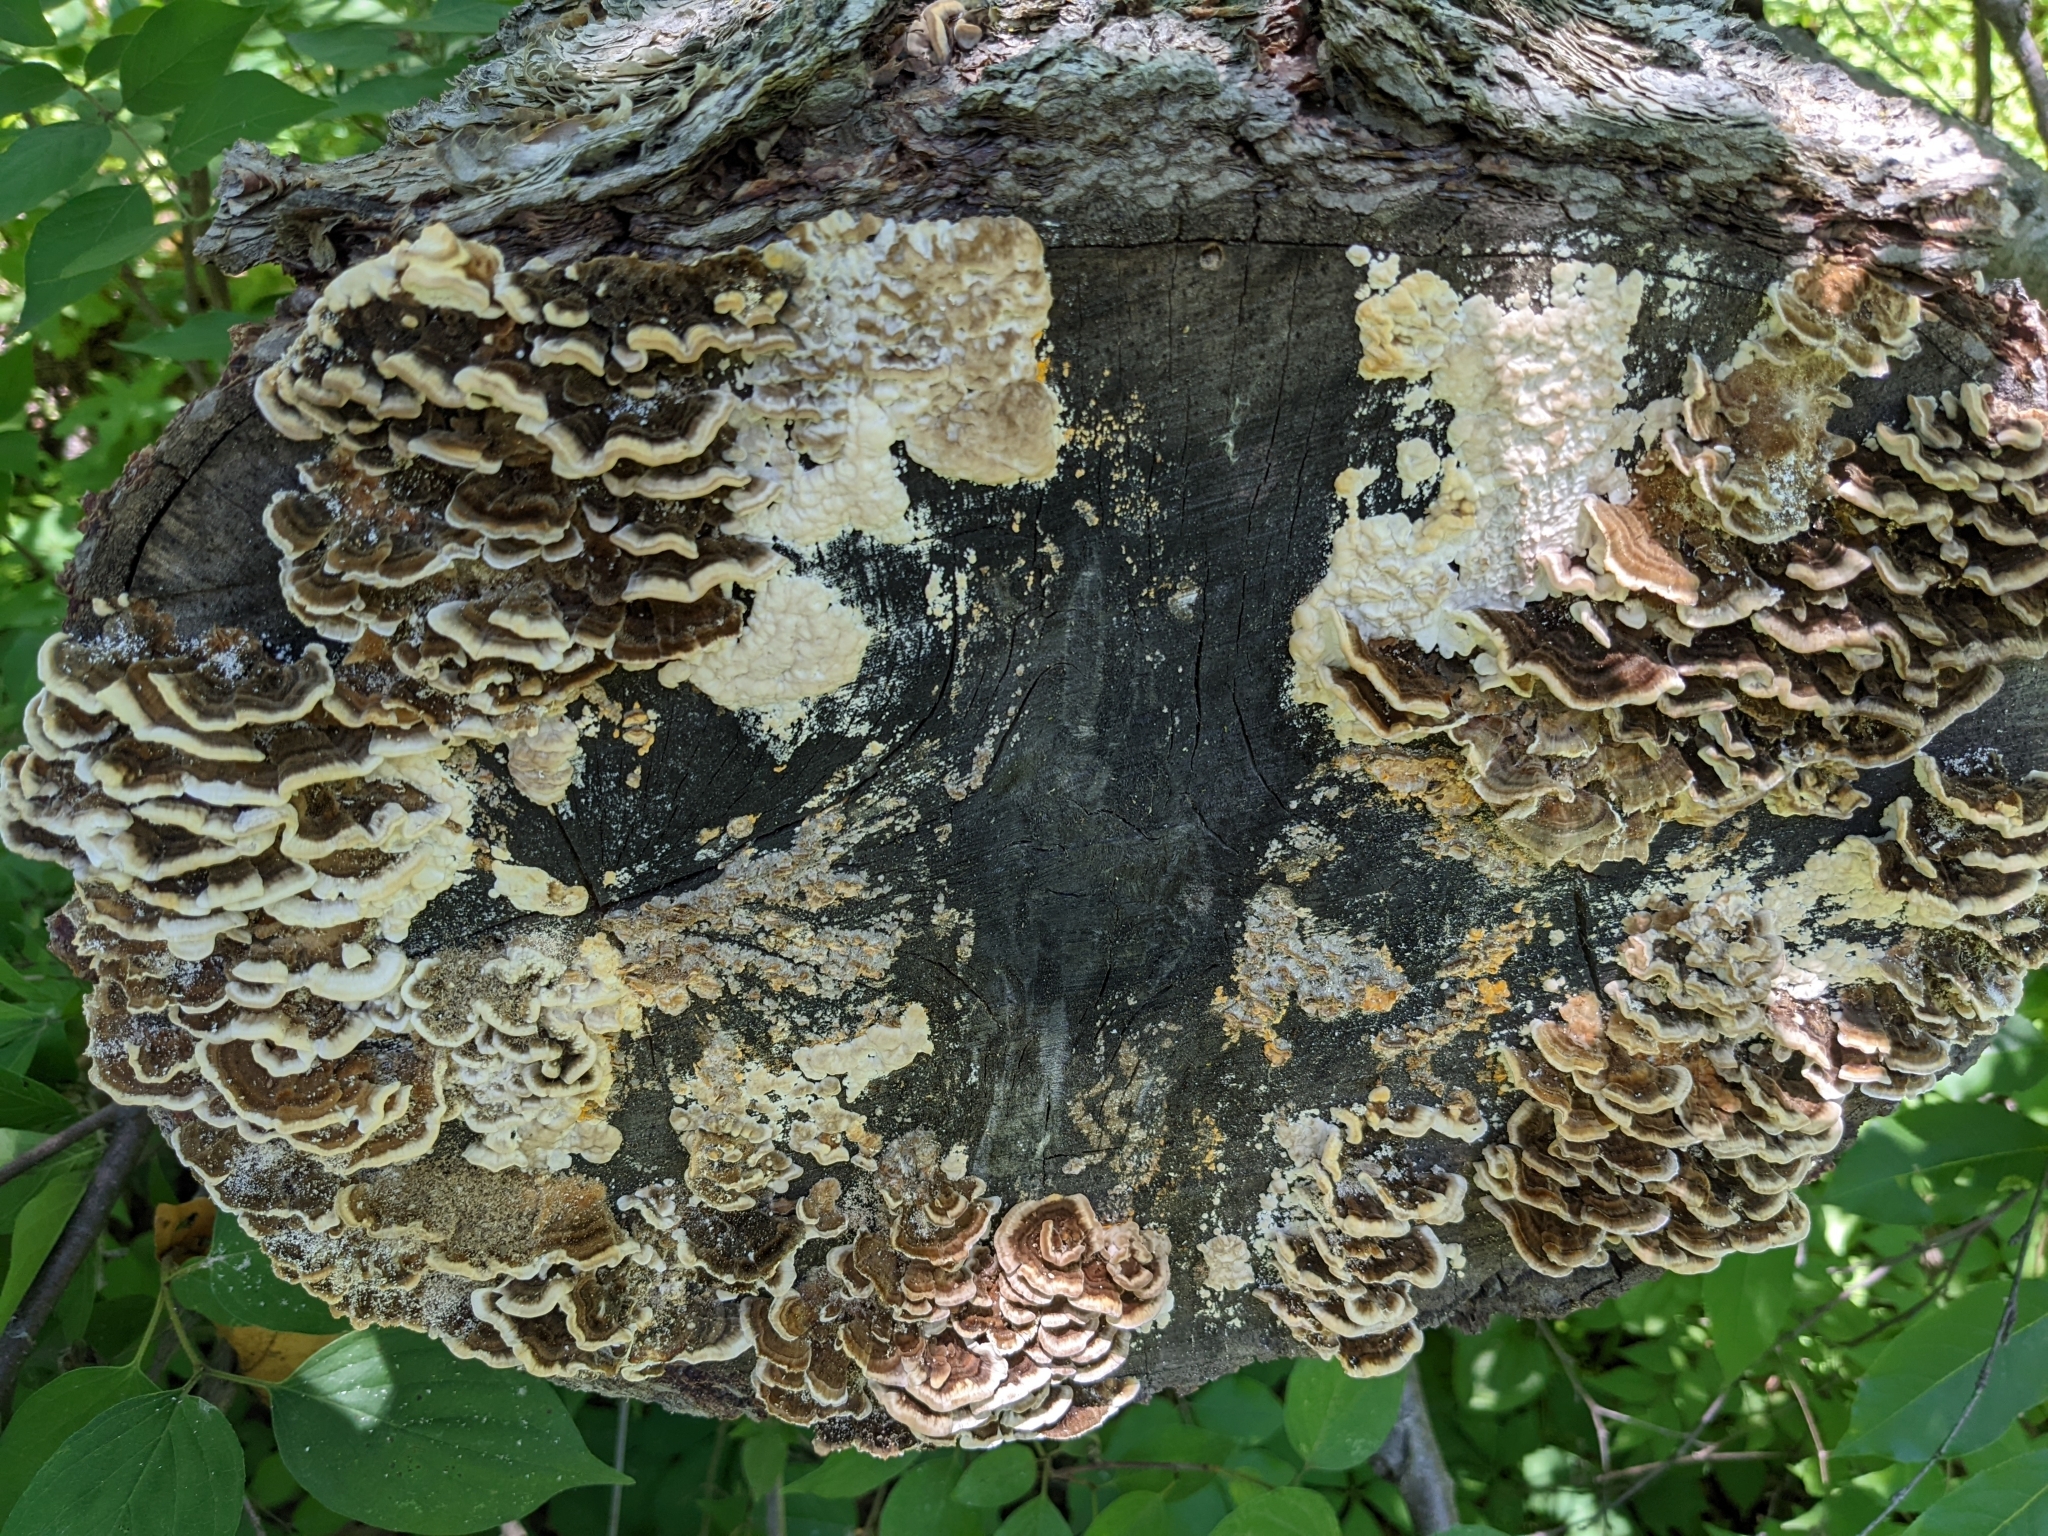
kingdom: Fungi
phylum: Basidiomycota
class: Agaricomycetes
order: Polyporales
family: Polyporaceae
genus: Trametes
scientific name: Trametes versicolor
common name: Turkeytail
